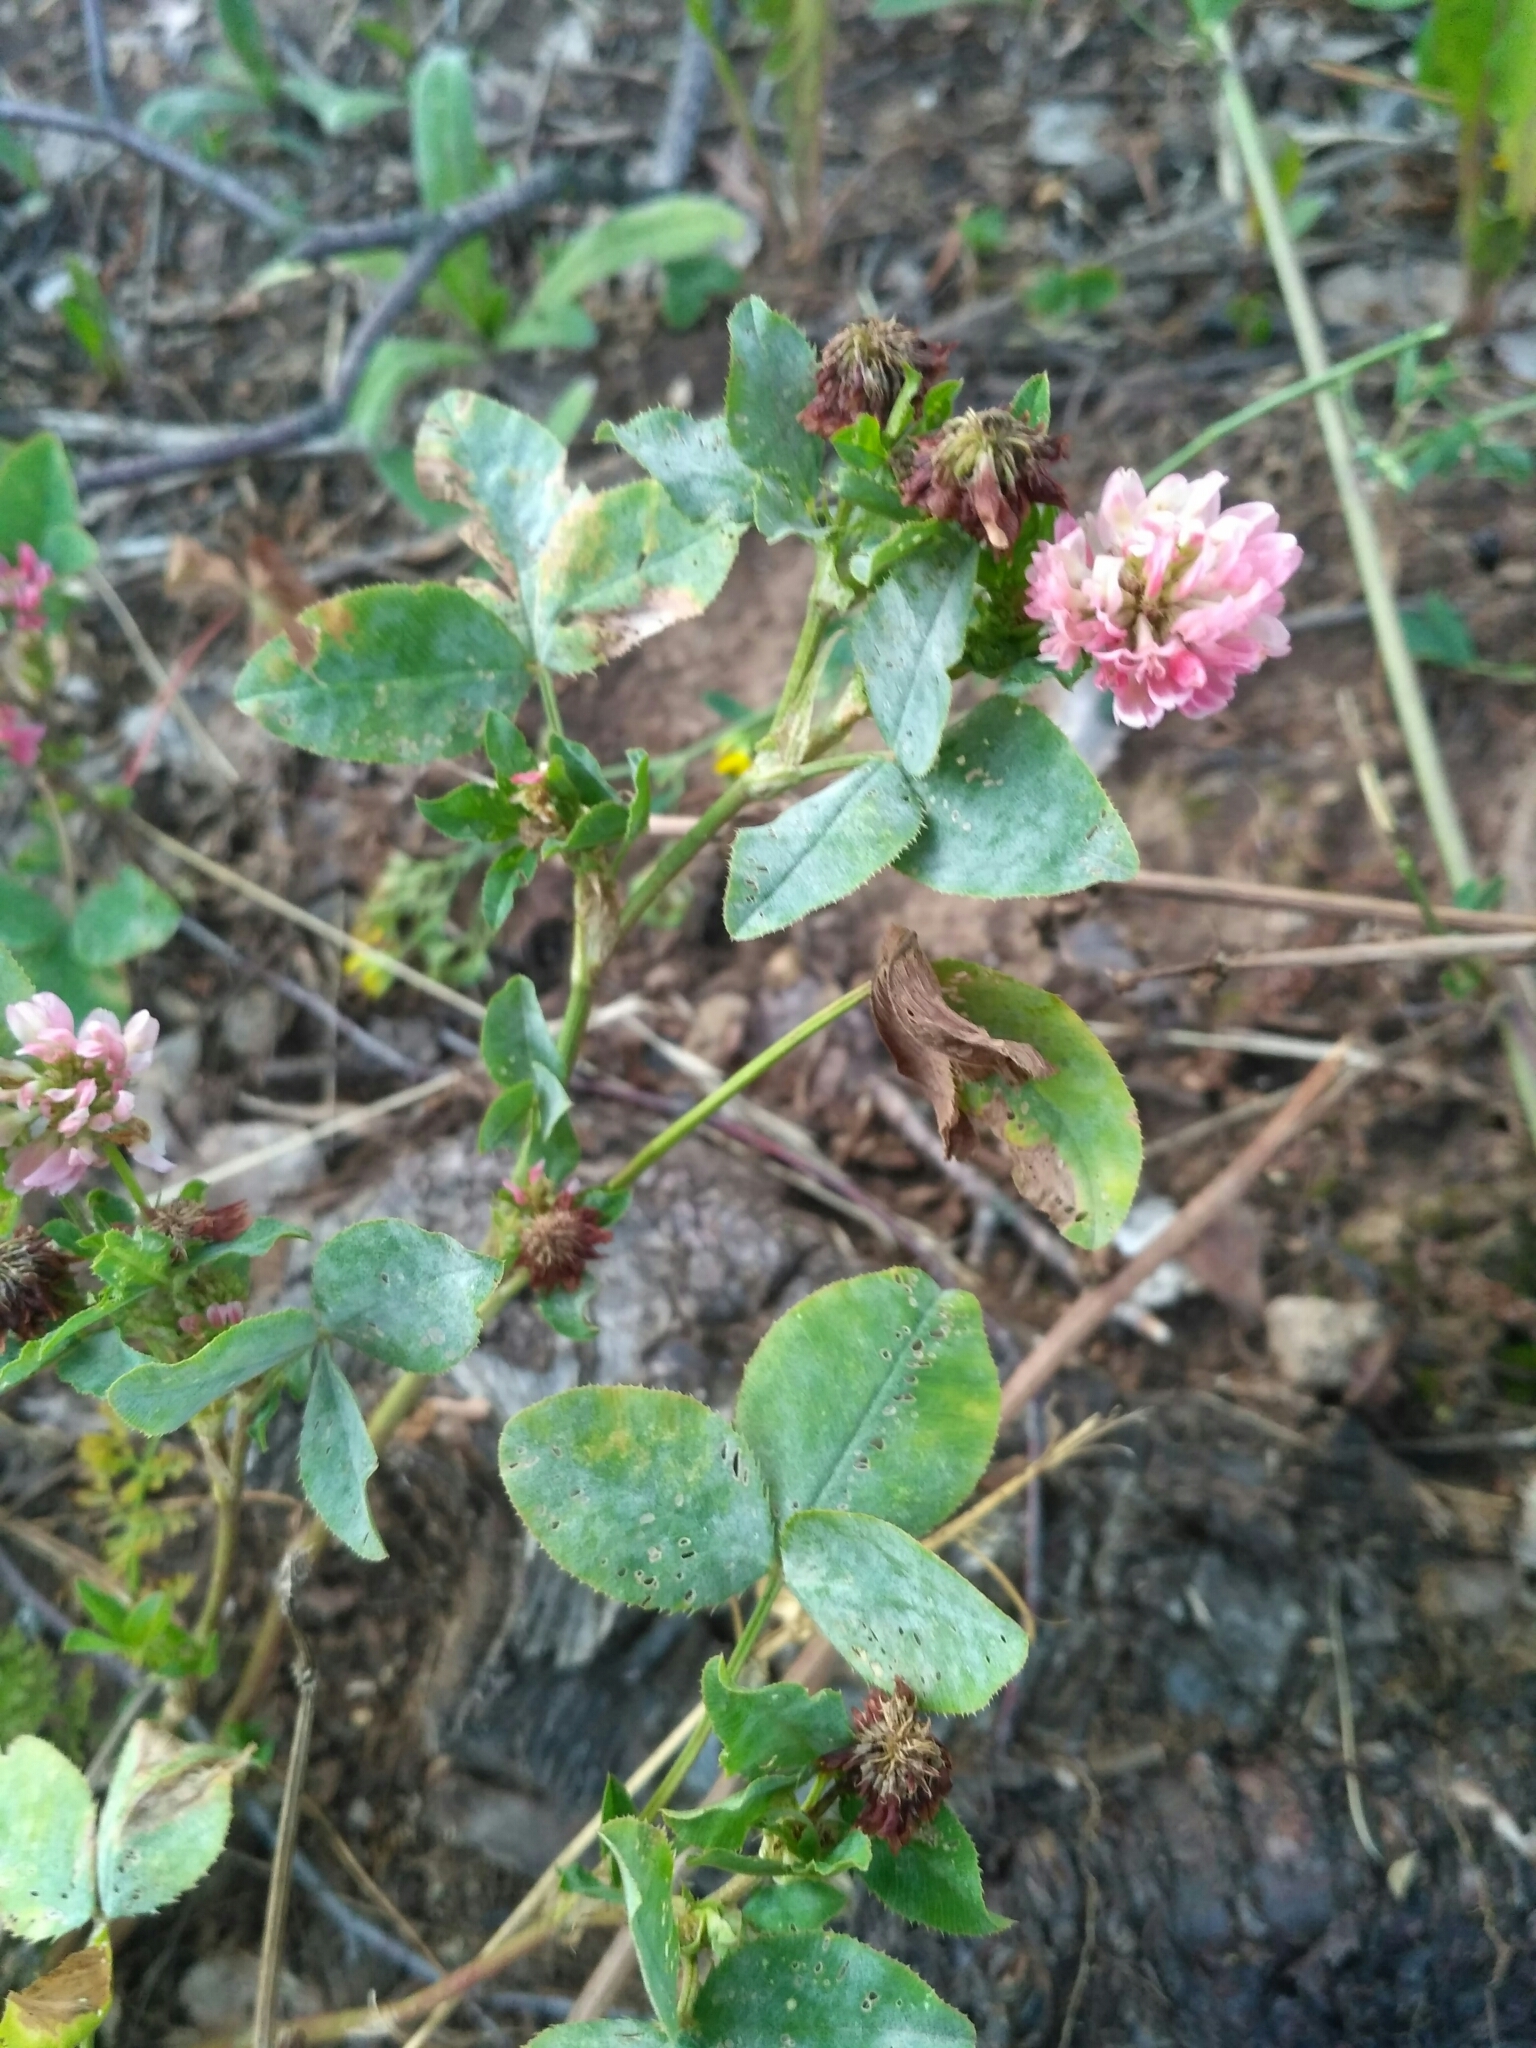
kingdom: Plantae
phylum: Tracheophyta
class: Magnoliopsida
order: Fabales
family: Fabaceae
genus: Trifolium
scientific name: Trifolium hybridum
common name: Alsike clover
